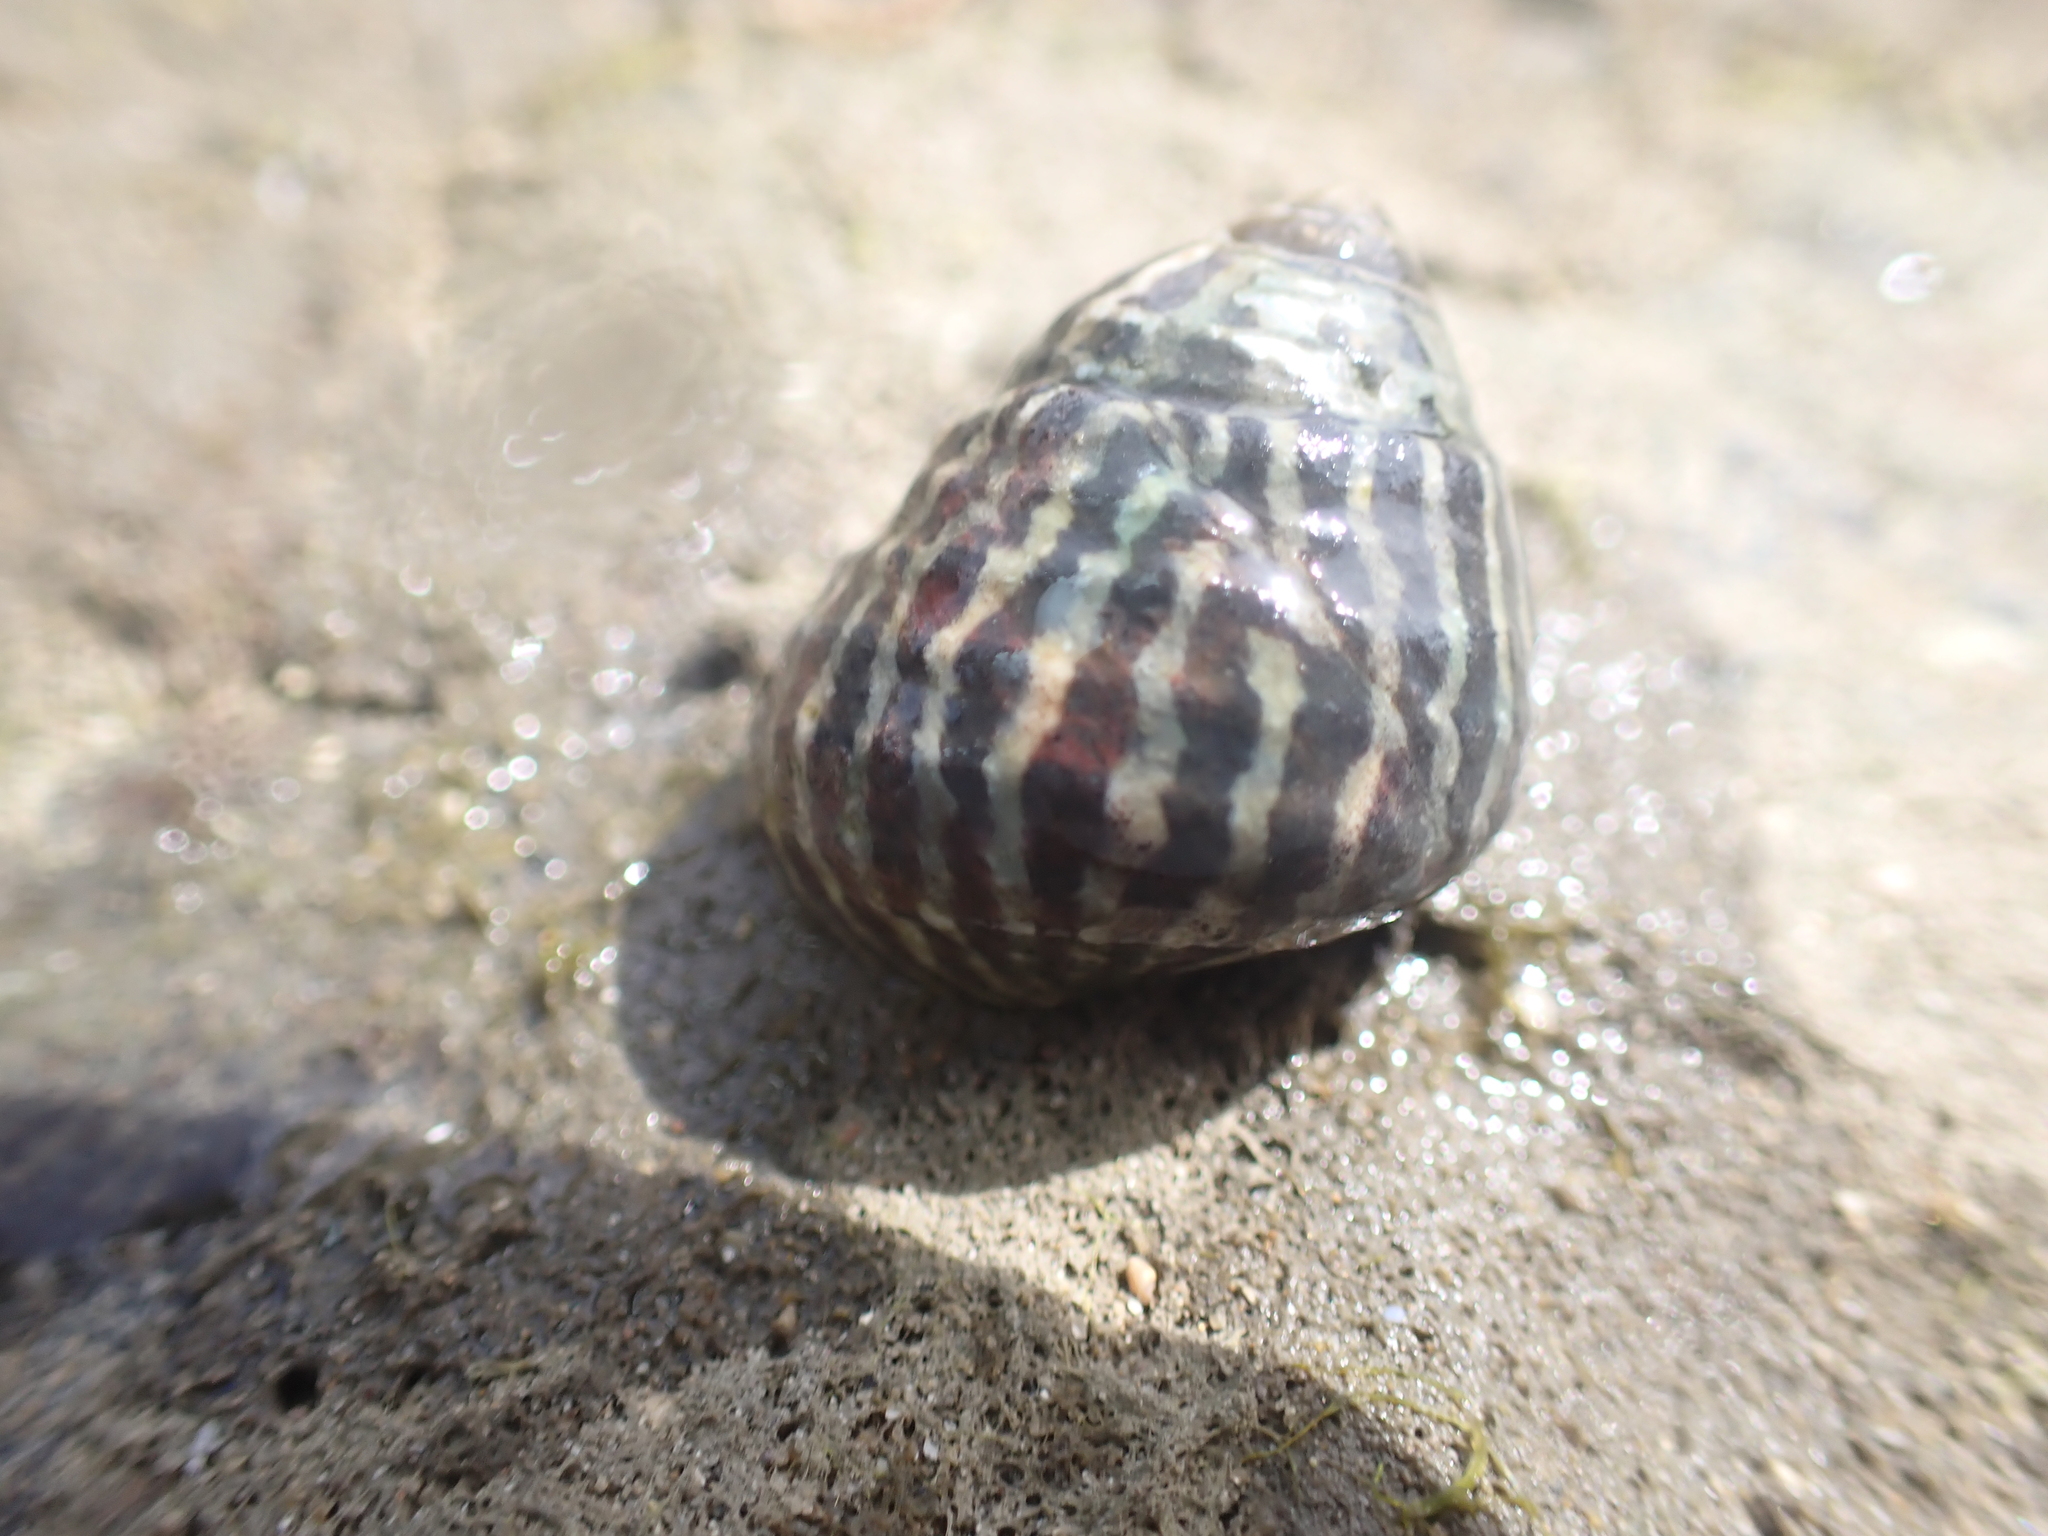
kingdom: Animalia
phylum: Mollusca
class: Gastropoda
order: Trochida
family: Trochidae
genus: Austrocochlea
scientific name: Austrocochlea porcata
